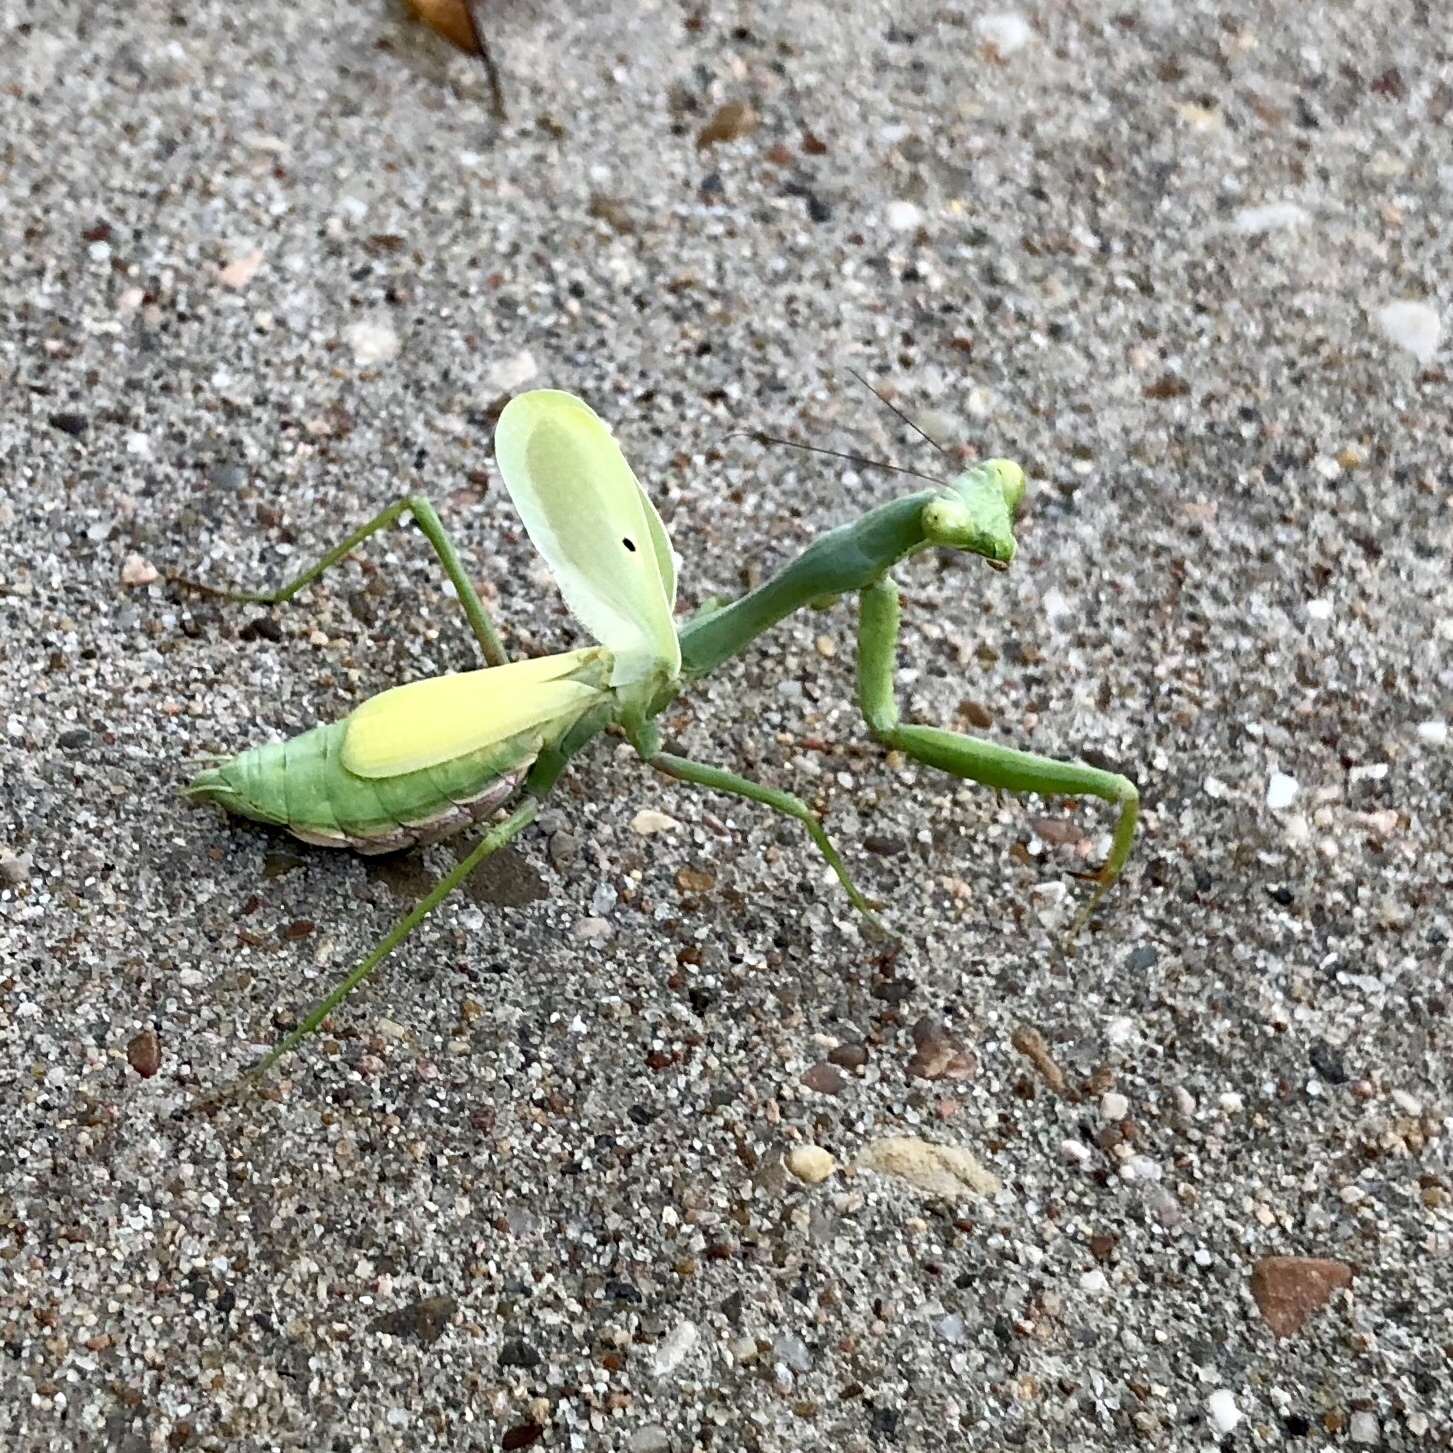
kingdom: Animalia
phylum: Arthropoda
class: Insecta
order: Mantodea
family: Mantidae
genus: Stagmomantis
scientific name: Stagmomantis carolina
